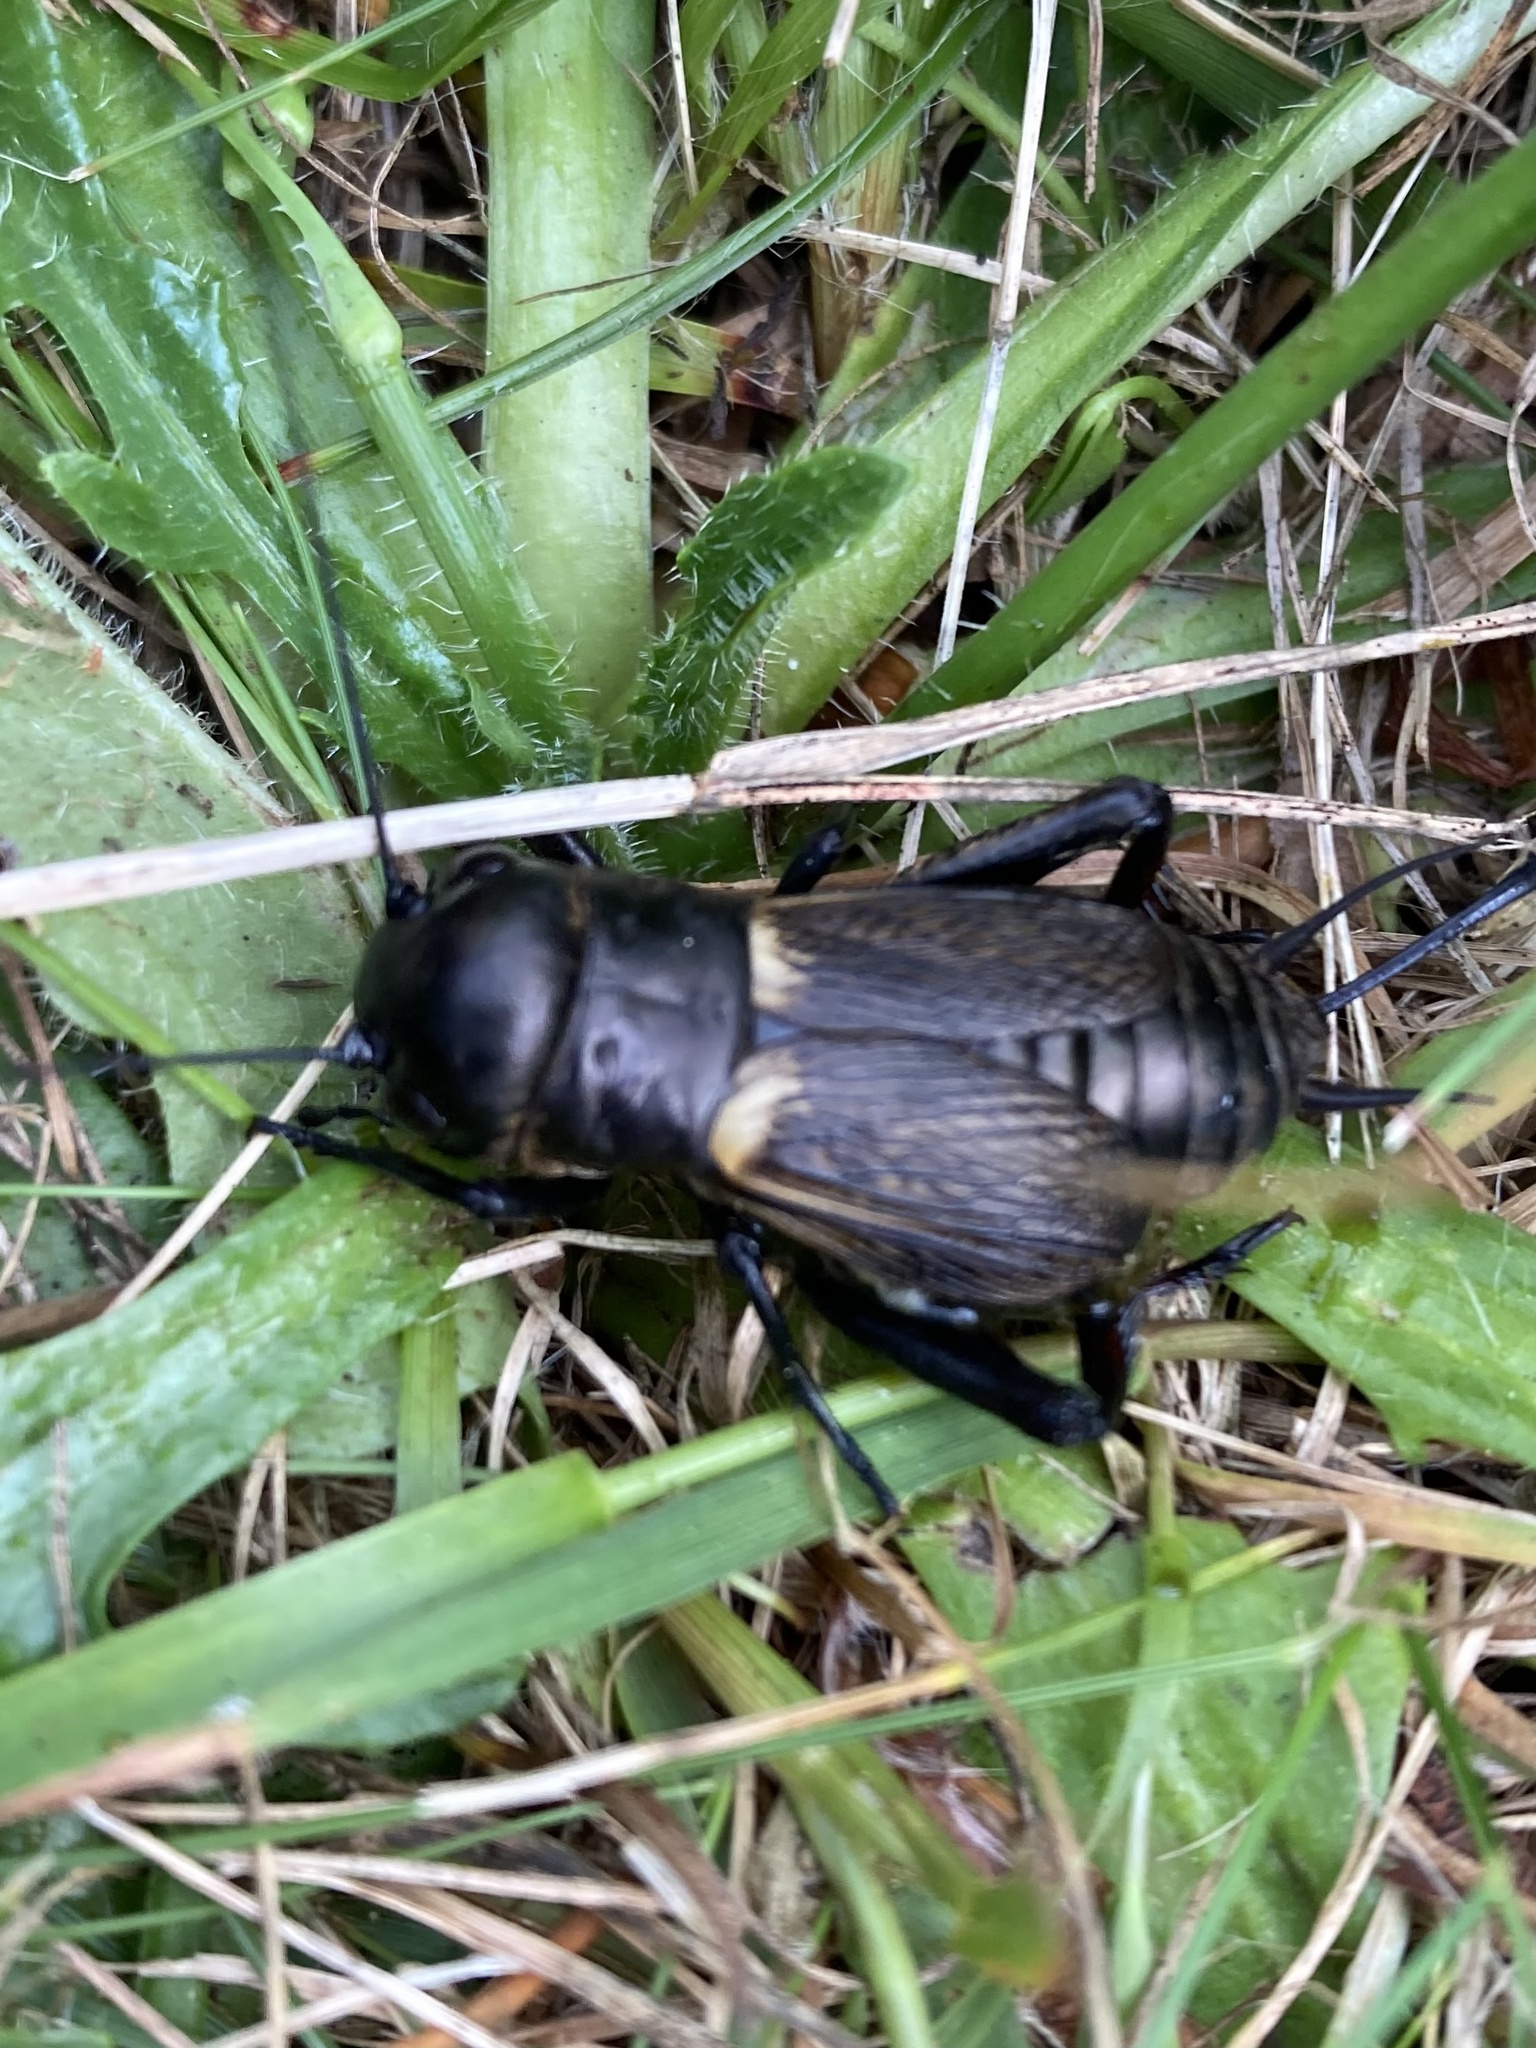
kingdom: Animalia
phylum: Arthropoda
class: Insecta
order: Orthoptera
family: Gryllidae
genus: Gryllus
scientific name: Gryllus campestris
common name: Field cricket
